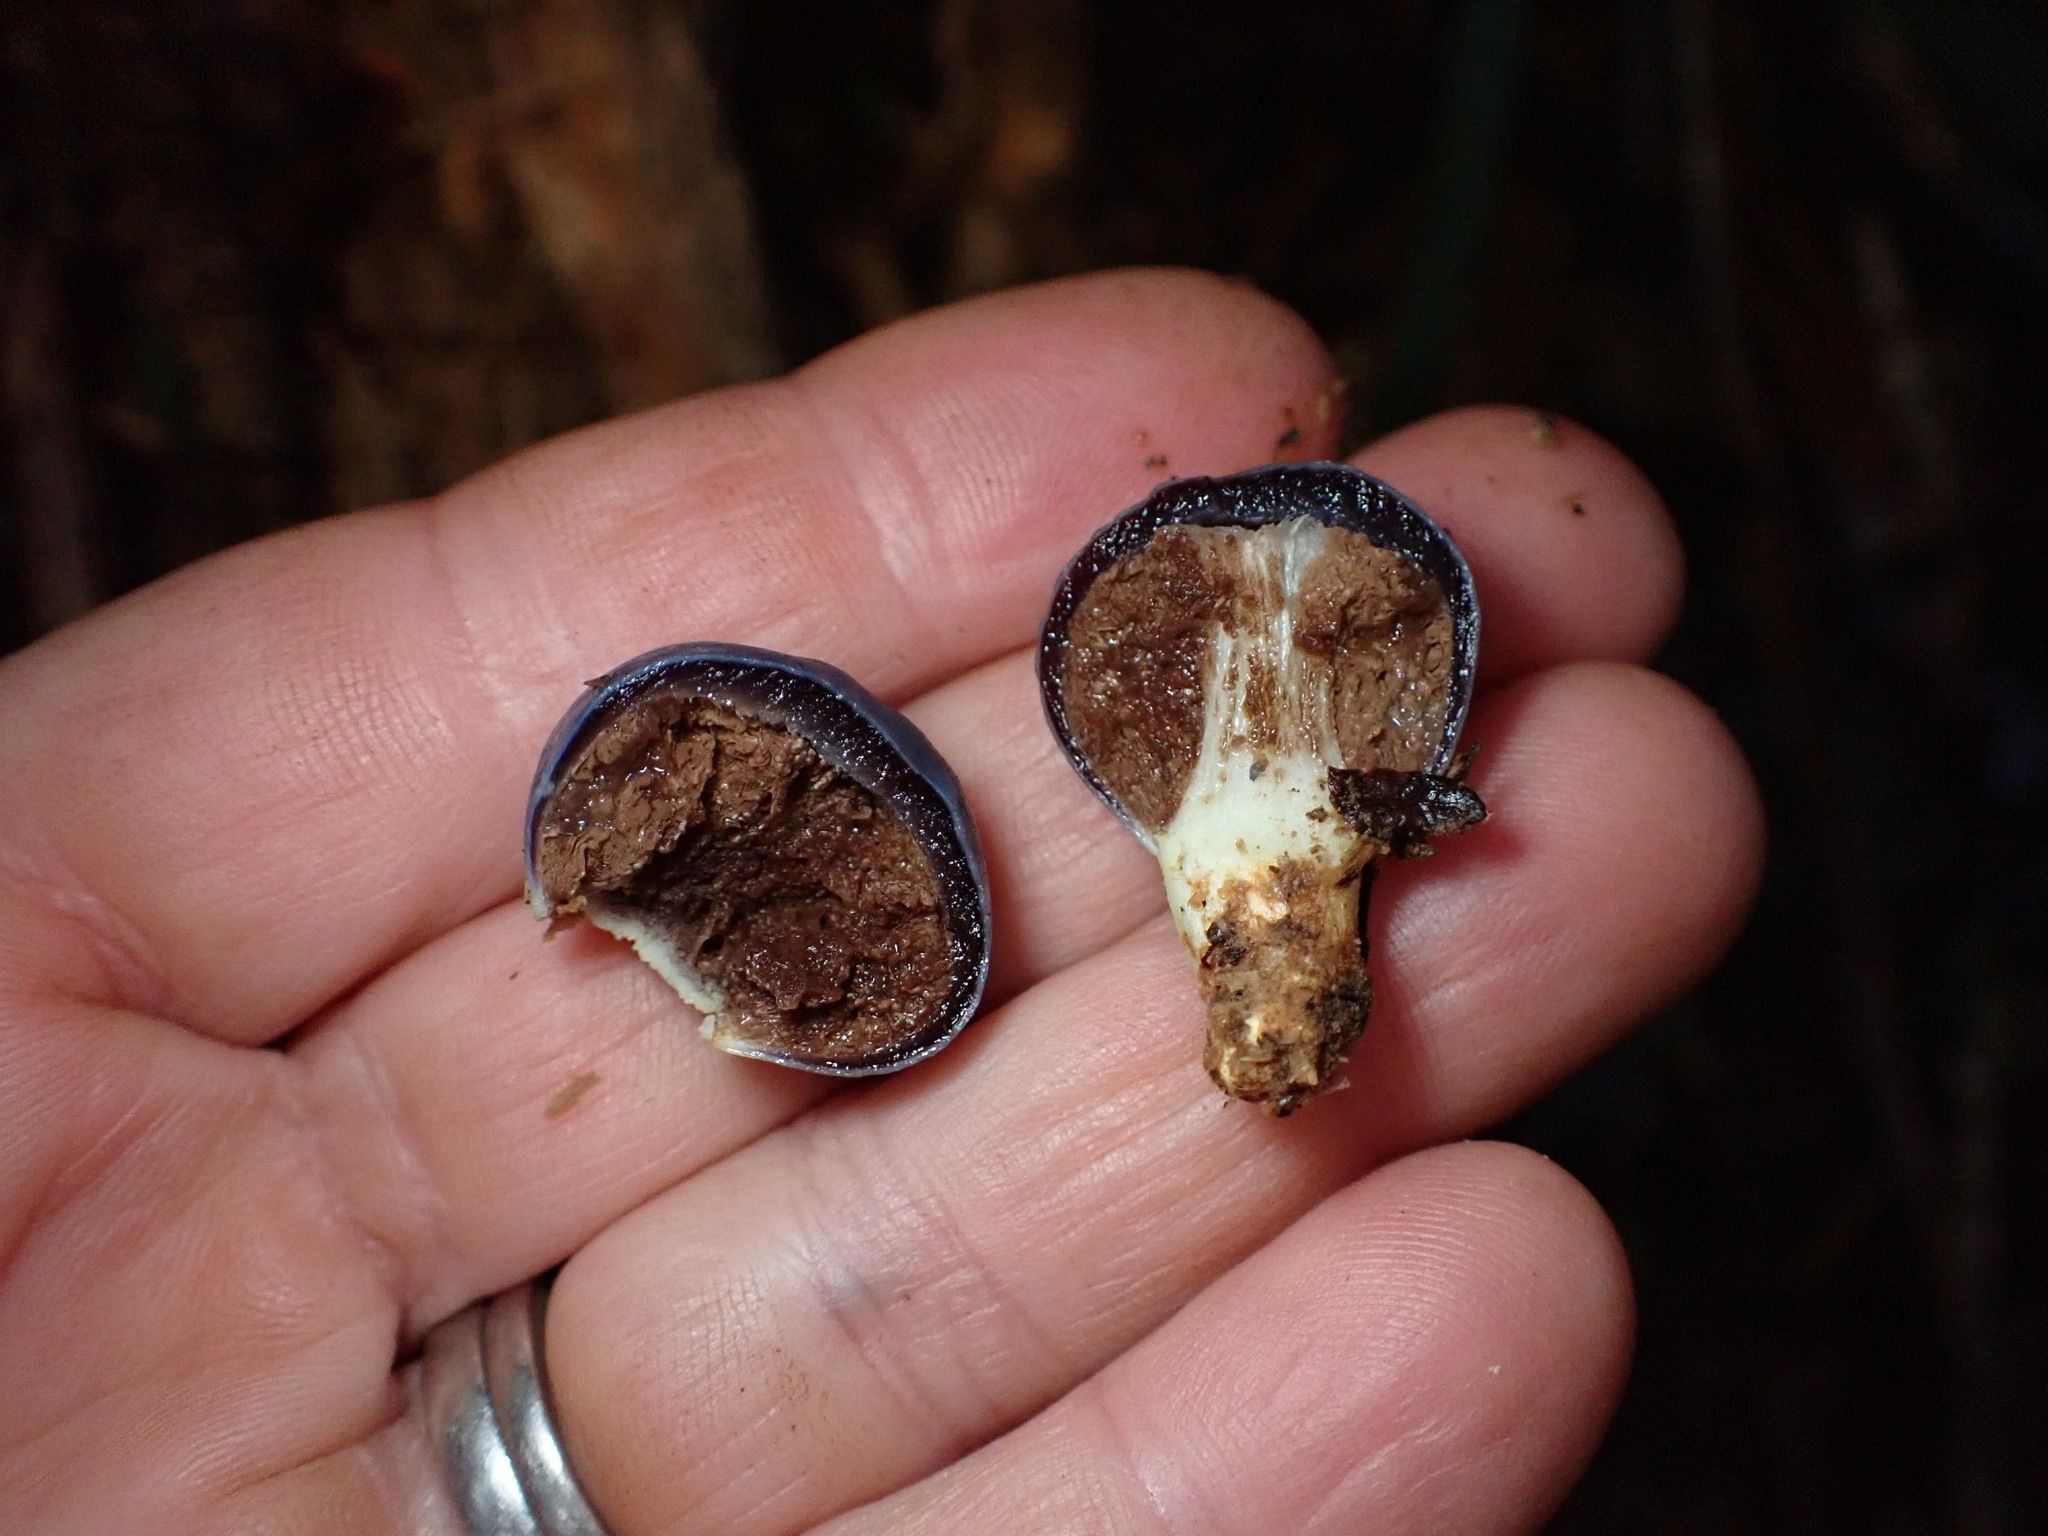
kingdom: Fungi
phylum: Basidiomycota
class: Agaricomycetes
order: Agaricales
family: Agaricaceae
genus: Clavogaster
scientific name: Clavogaster virescens
